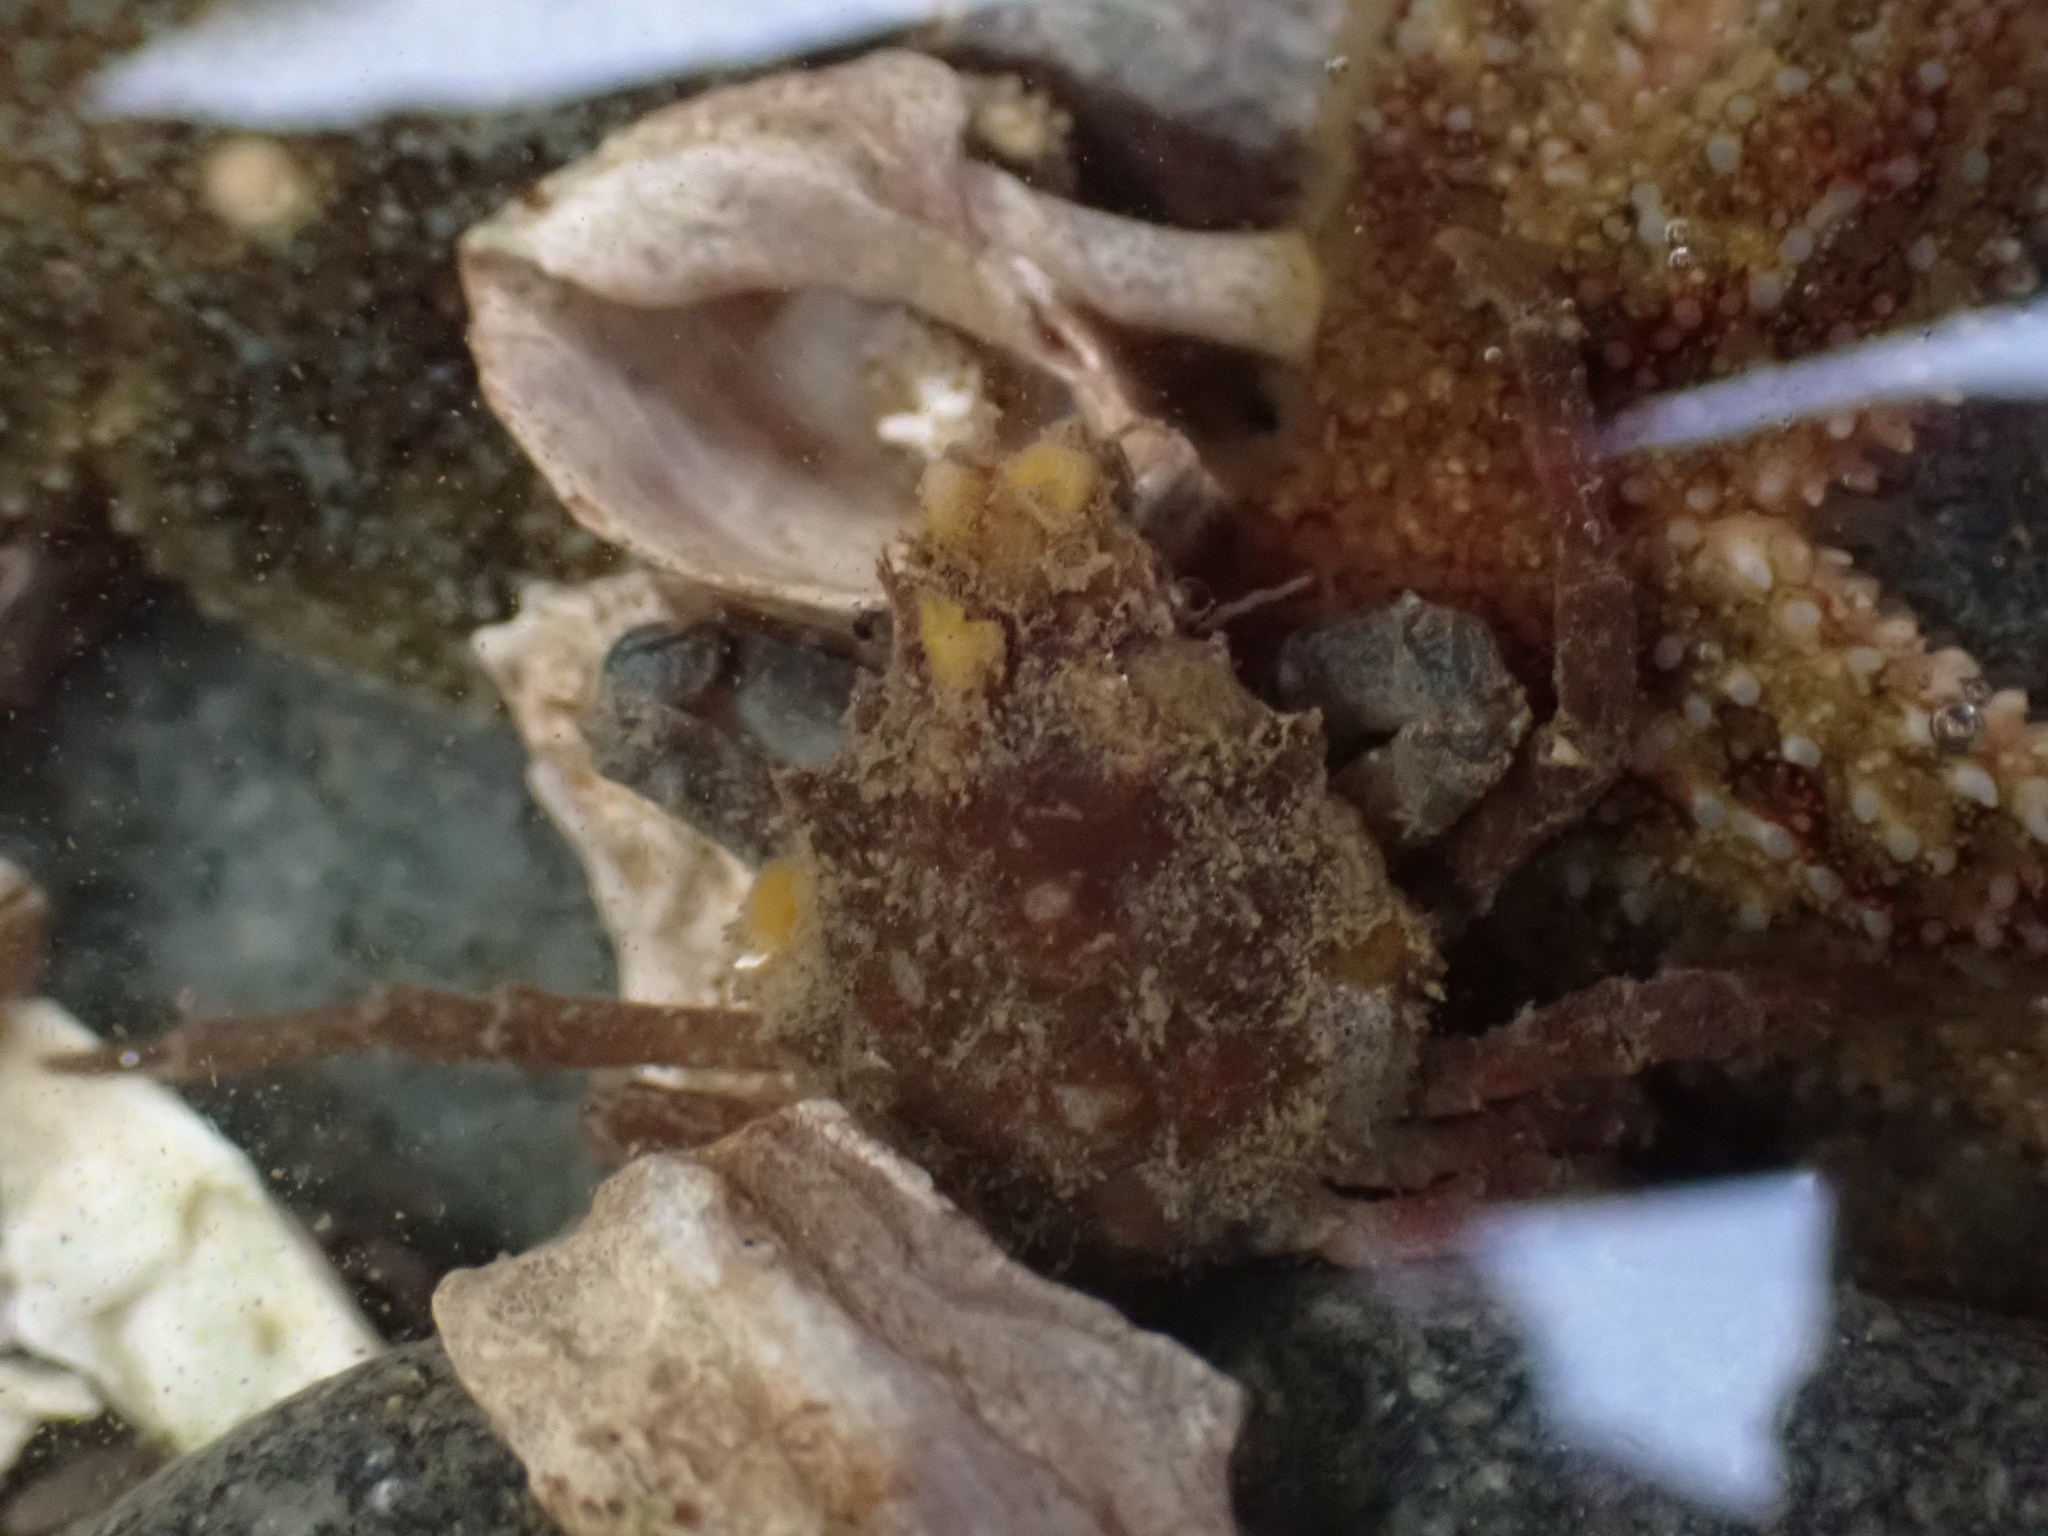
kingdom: Animalia
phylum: Arthropoda
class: Malacostraca
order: Decapoda
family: Epialtidae
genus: Pugettia
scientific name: Pugettia gracilis
